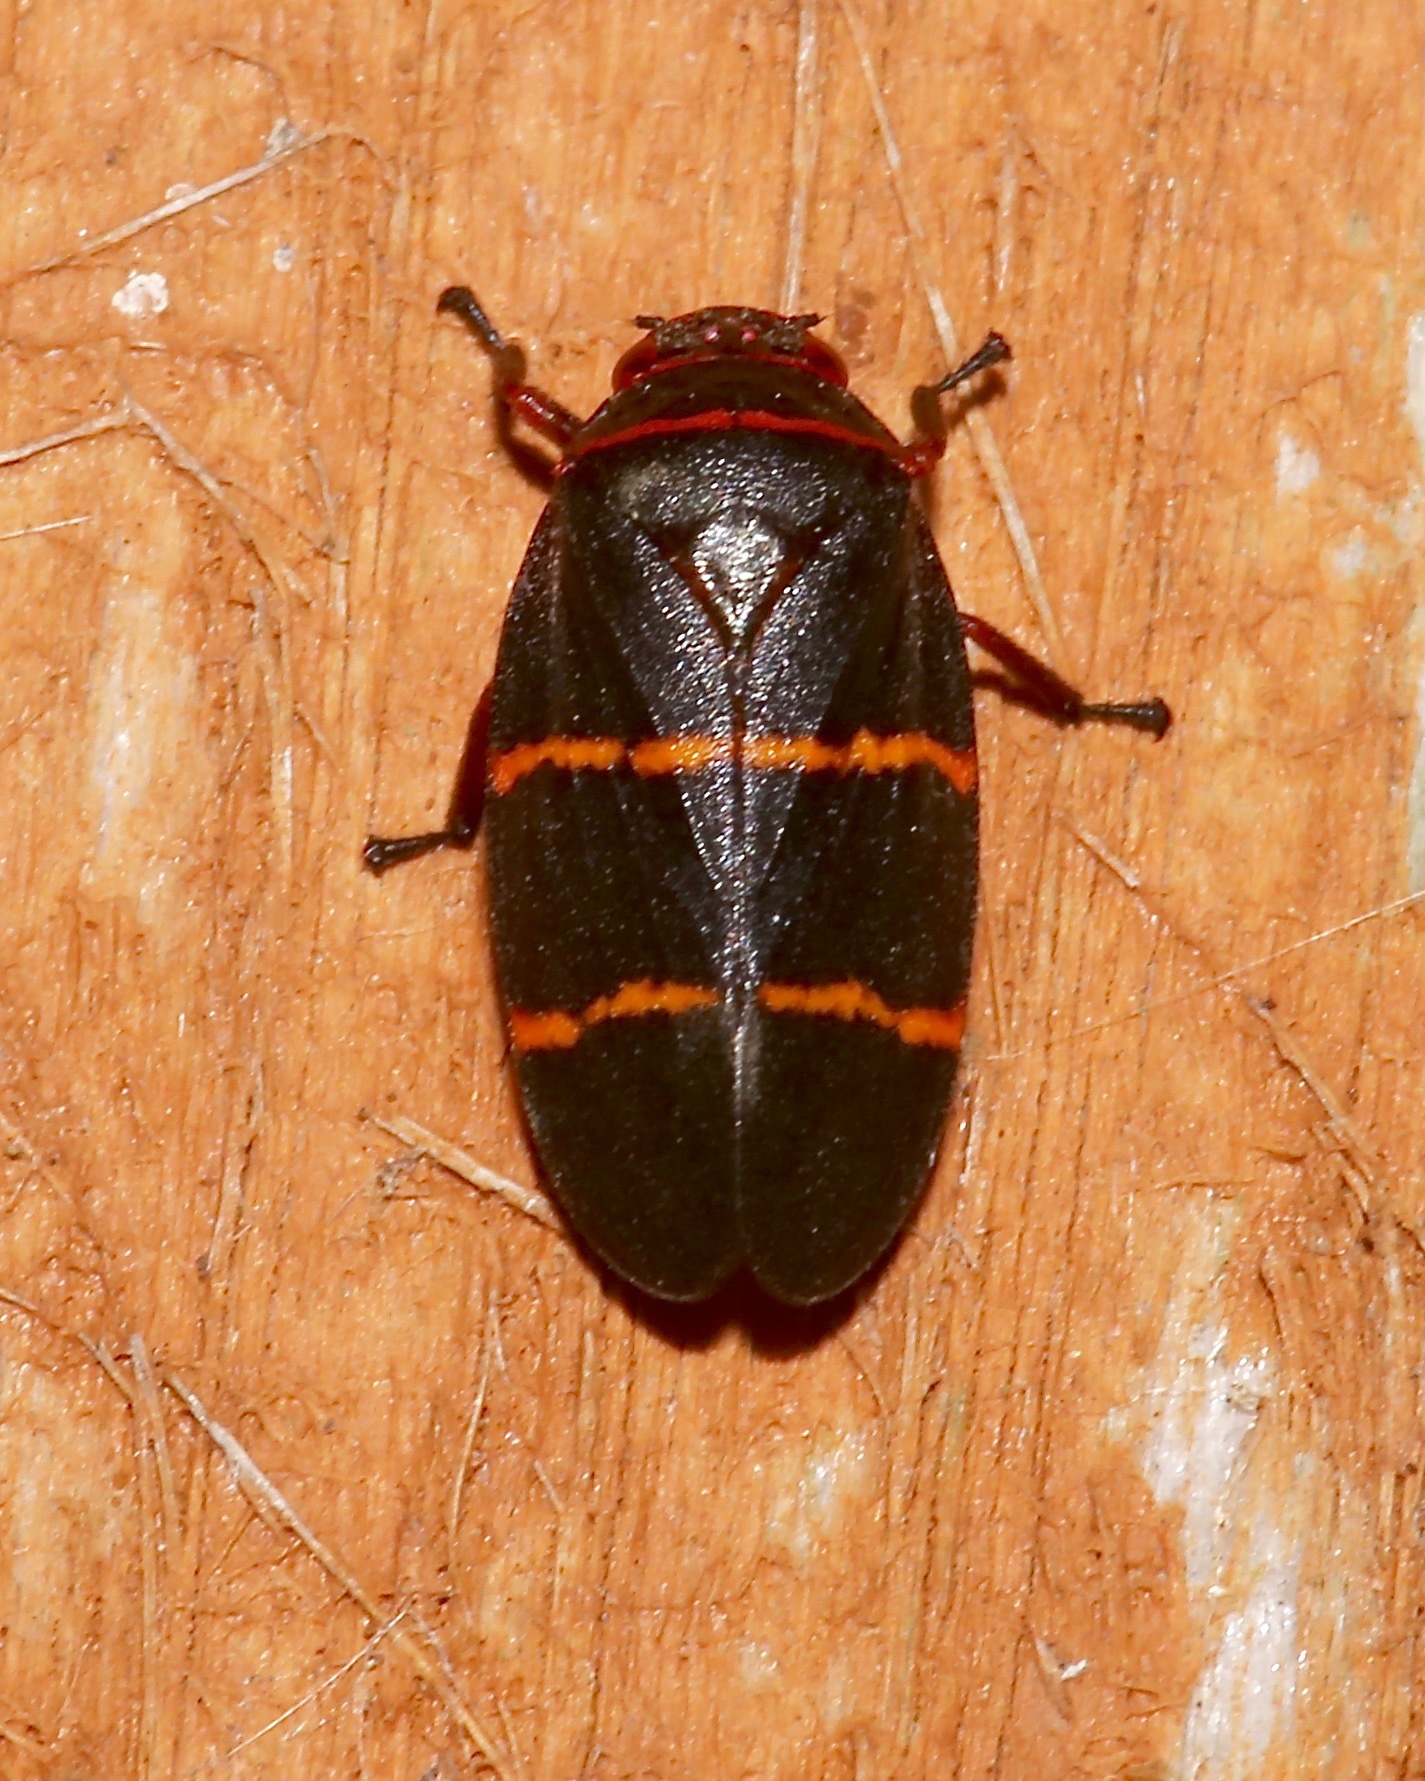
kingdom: Animalia
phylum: Arthropoda
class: Insecta
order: Hemiptera
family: Cercopidae
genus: Prosapia
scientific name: Prosapia bicincta
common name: Twolined spittlebug
